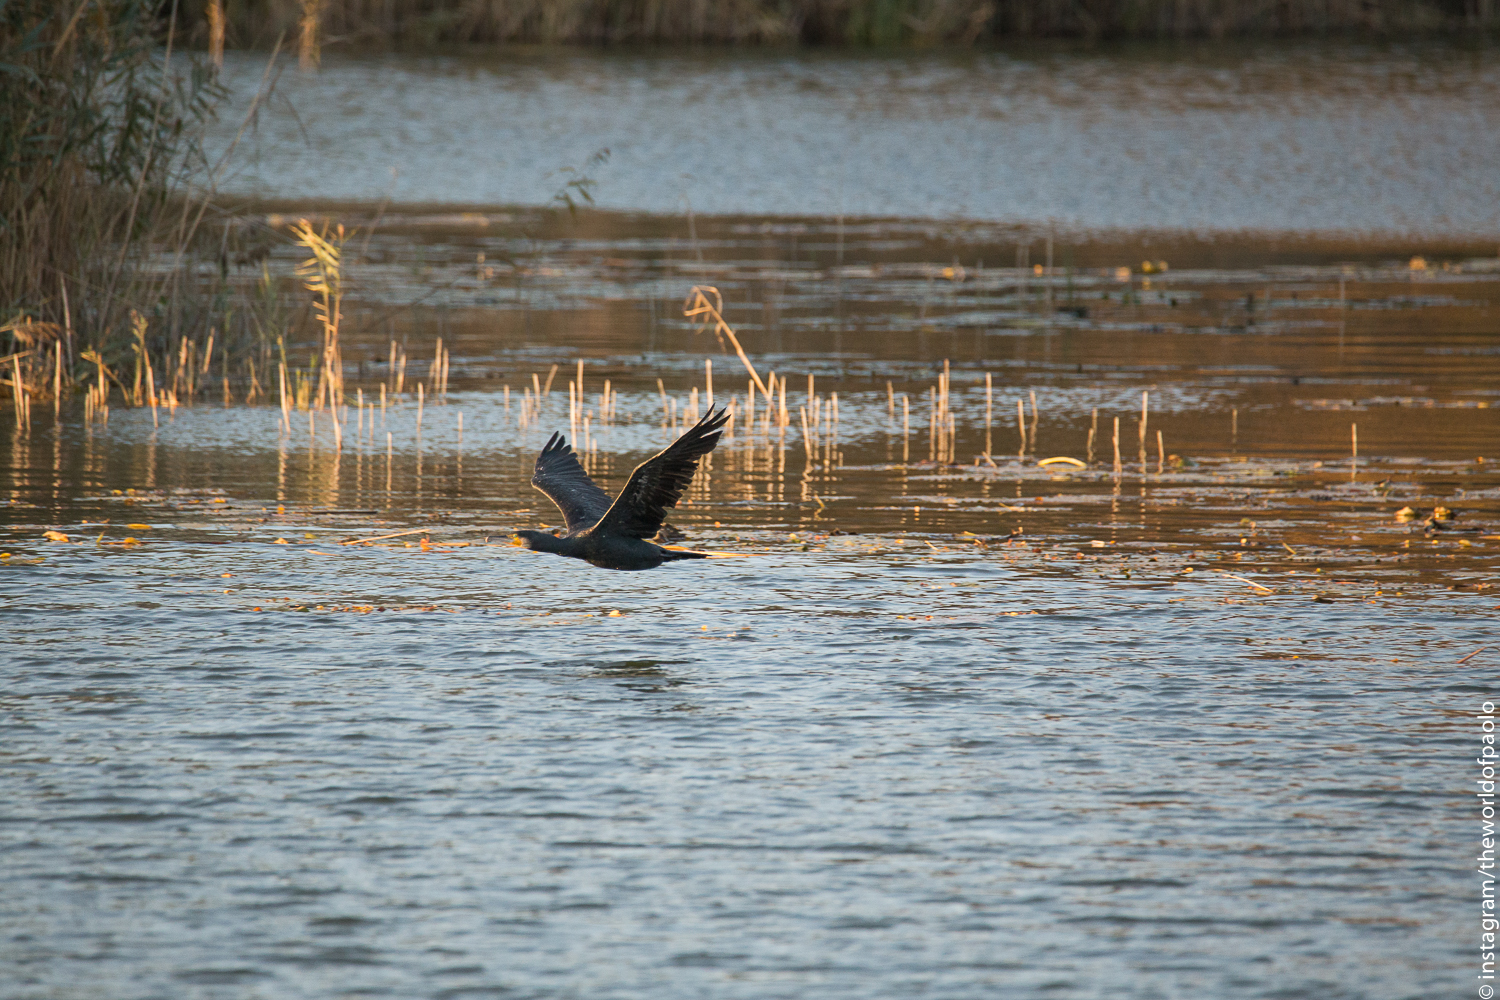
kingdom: Animalia
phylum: Chordata
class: Aves
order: Suliformes
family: Phalacrocoracidae
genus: Phalacrocorax
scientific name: Phalacrocorax carbo
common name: Great cormorant
